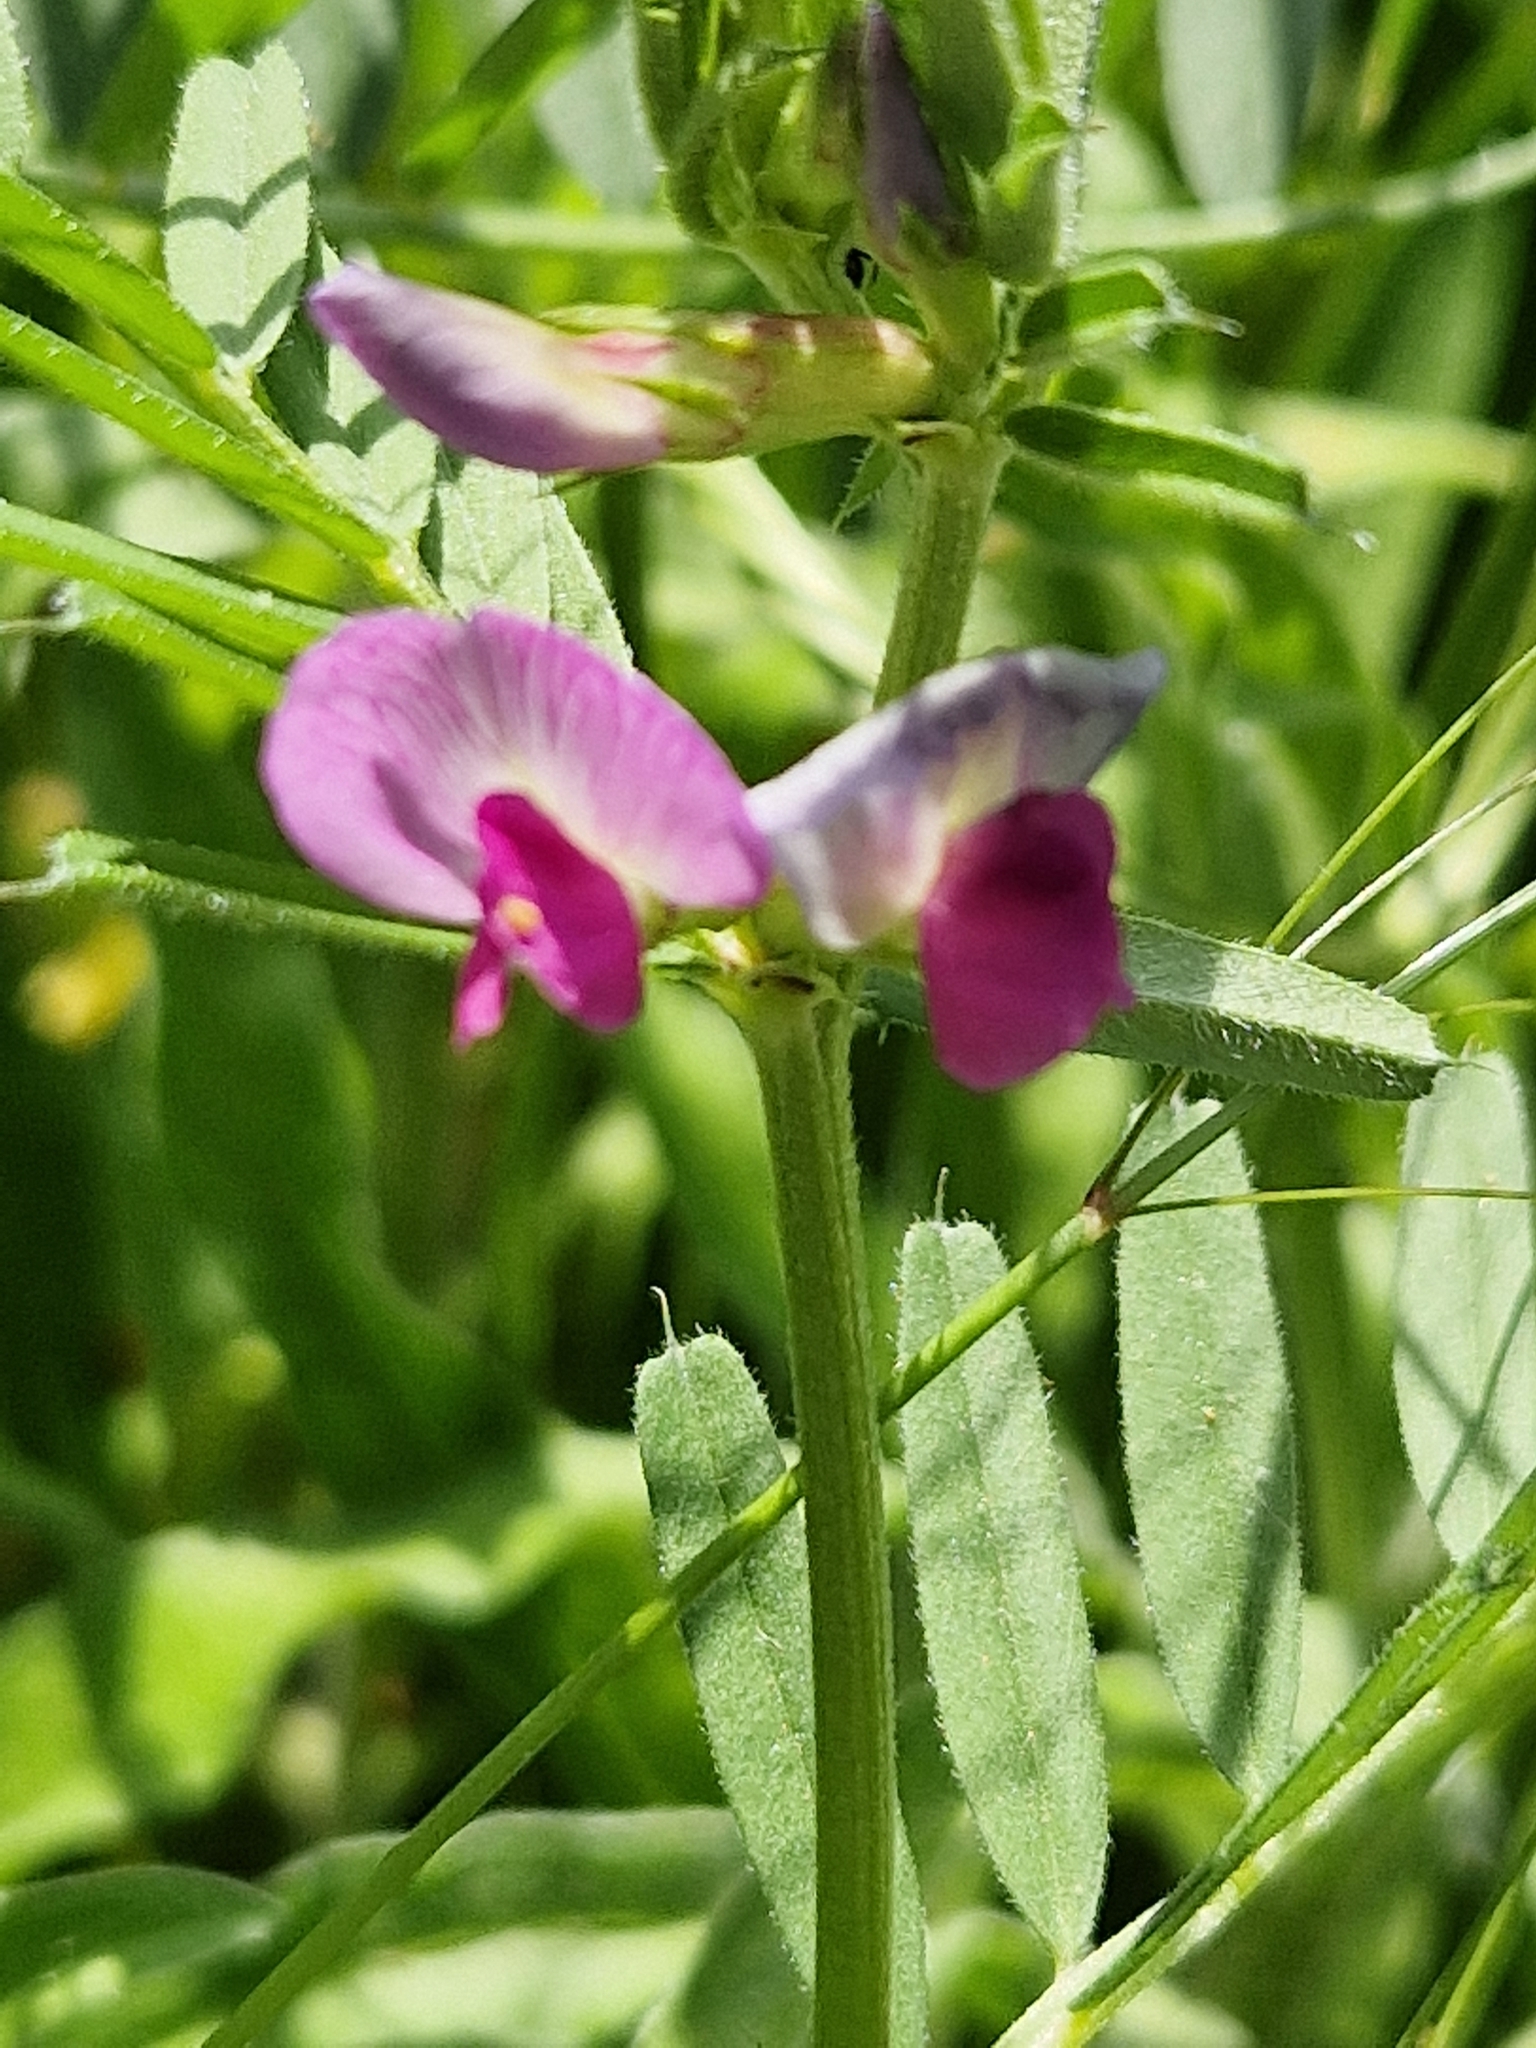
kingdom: Plantae
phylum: Tracheophyta
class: Magnoliopsida
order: Fabales
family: Fabaceae
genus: Vicia
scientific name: Vicia sativa
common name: Garden vetch
